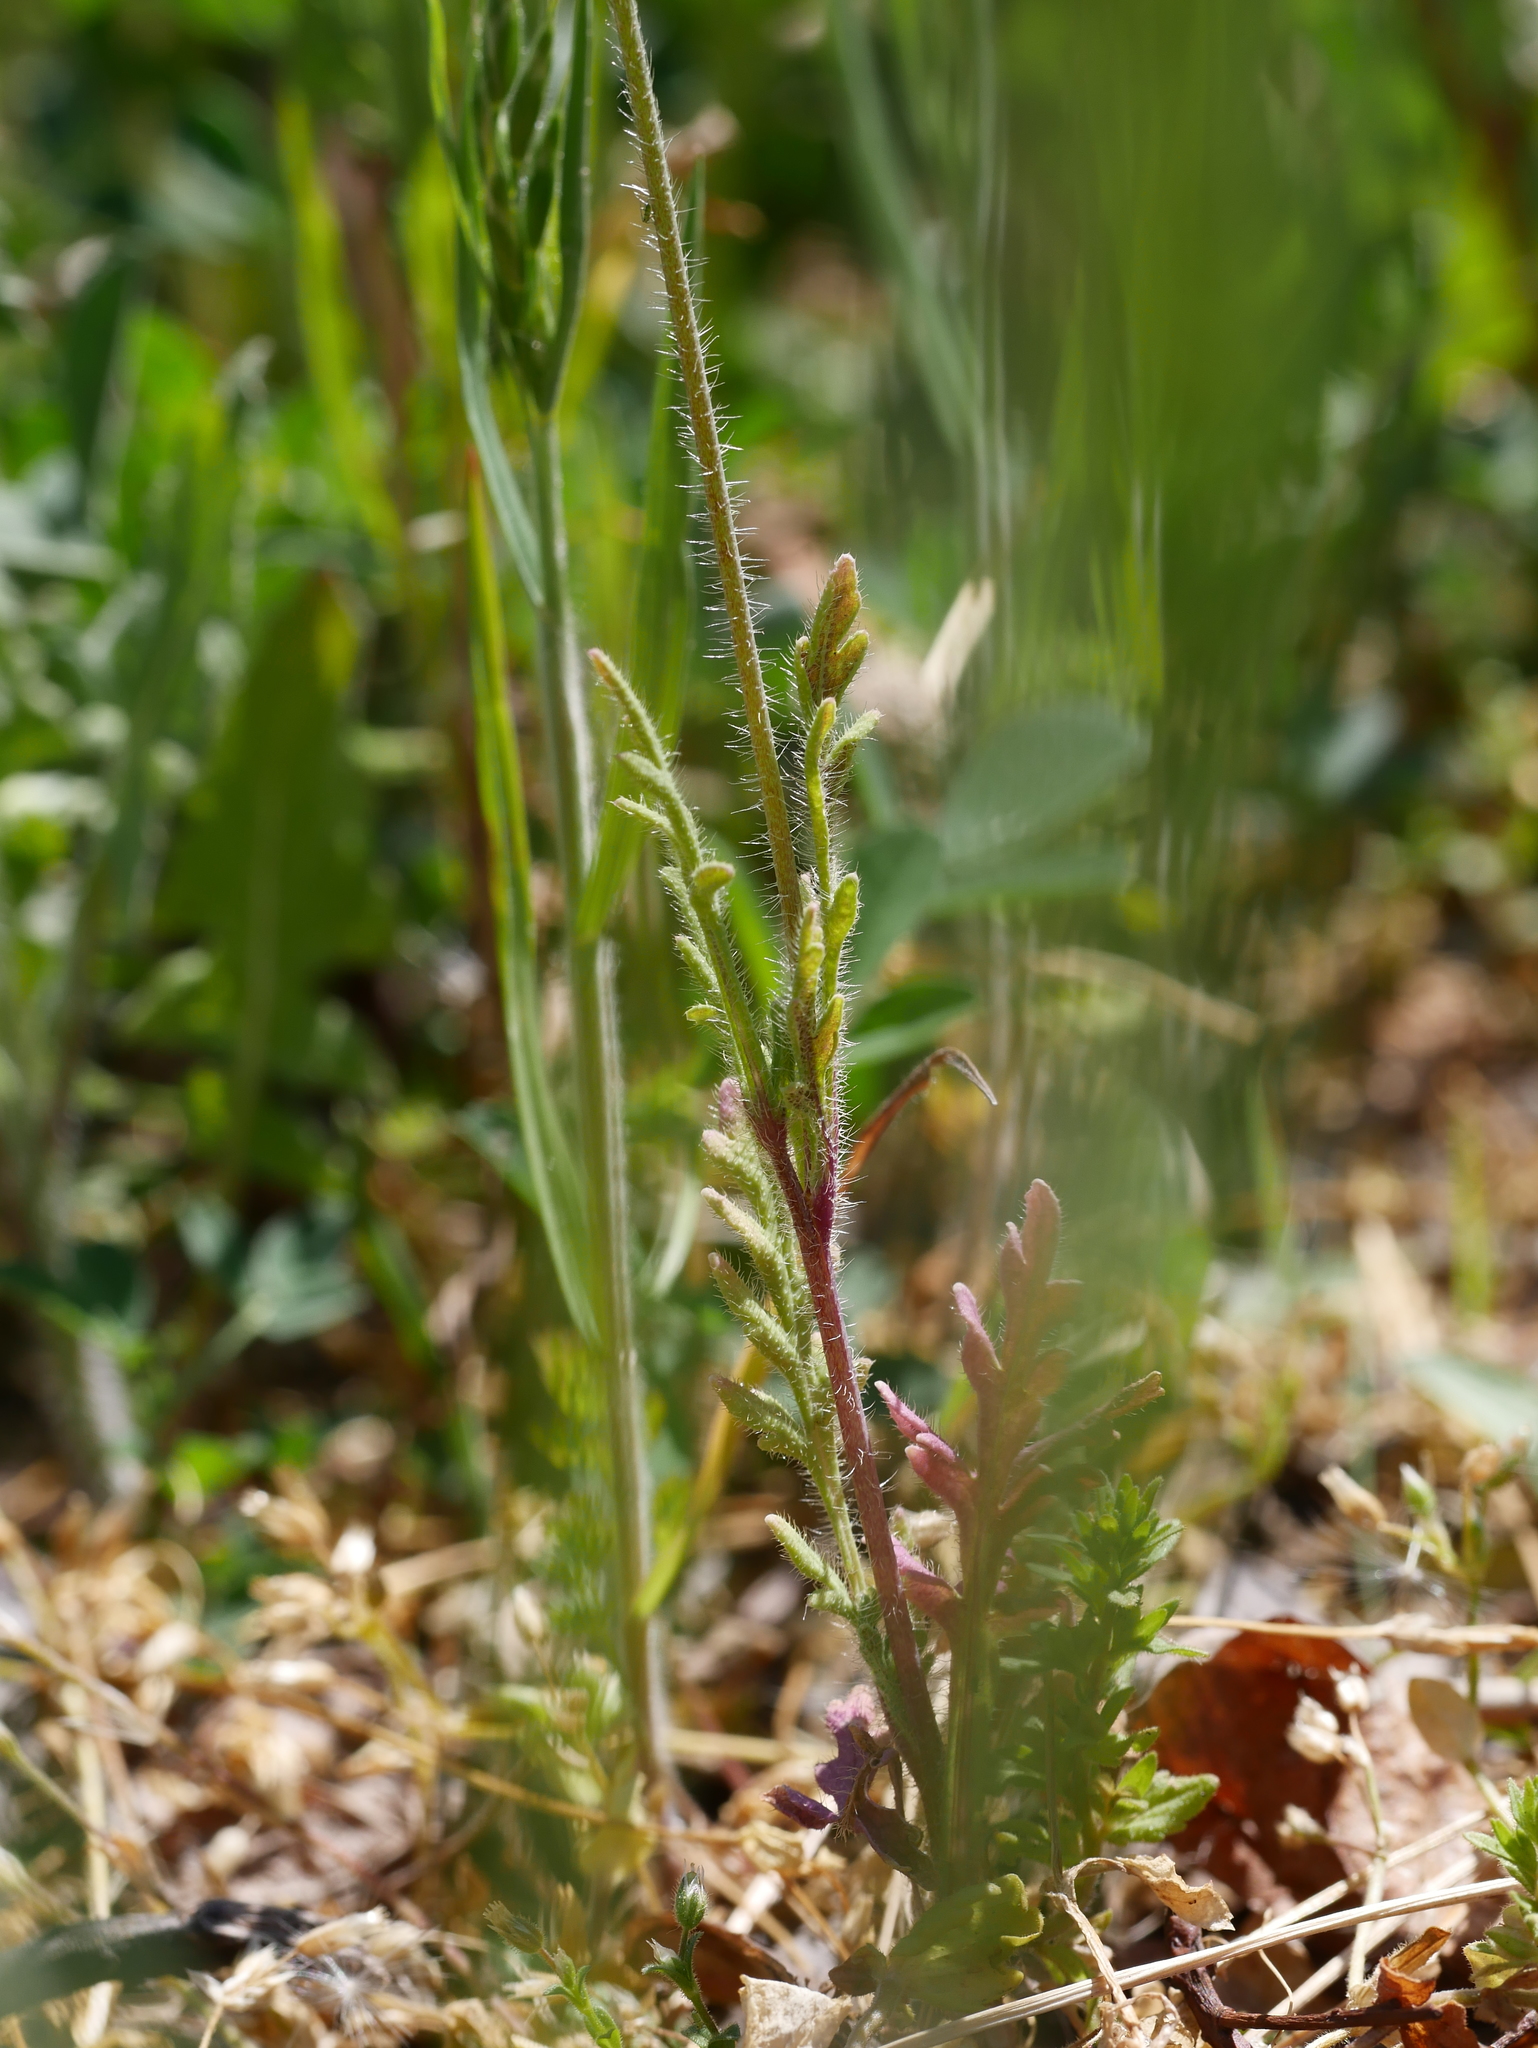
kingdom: Plantae
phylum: Tracheophyta
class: Magnoliopsida
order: Ranunculales
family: Papaveraceae
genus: Papaver
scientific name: Papaver dubium
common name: Long-headed poppy
